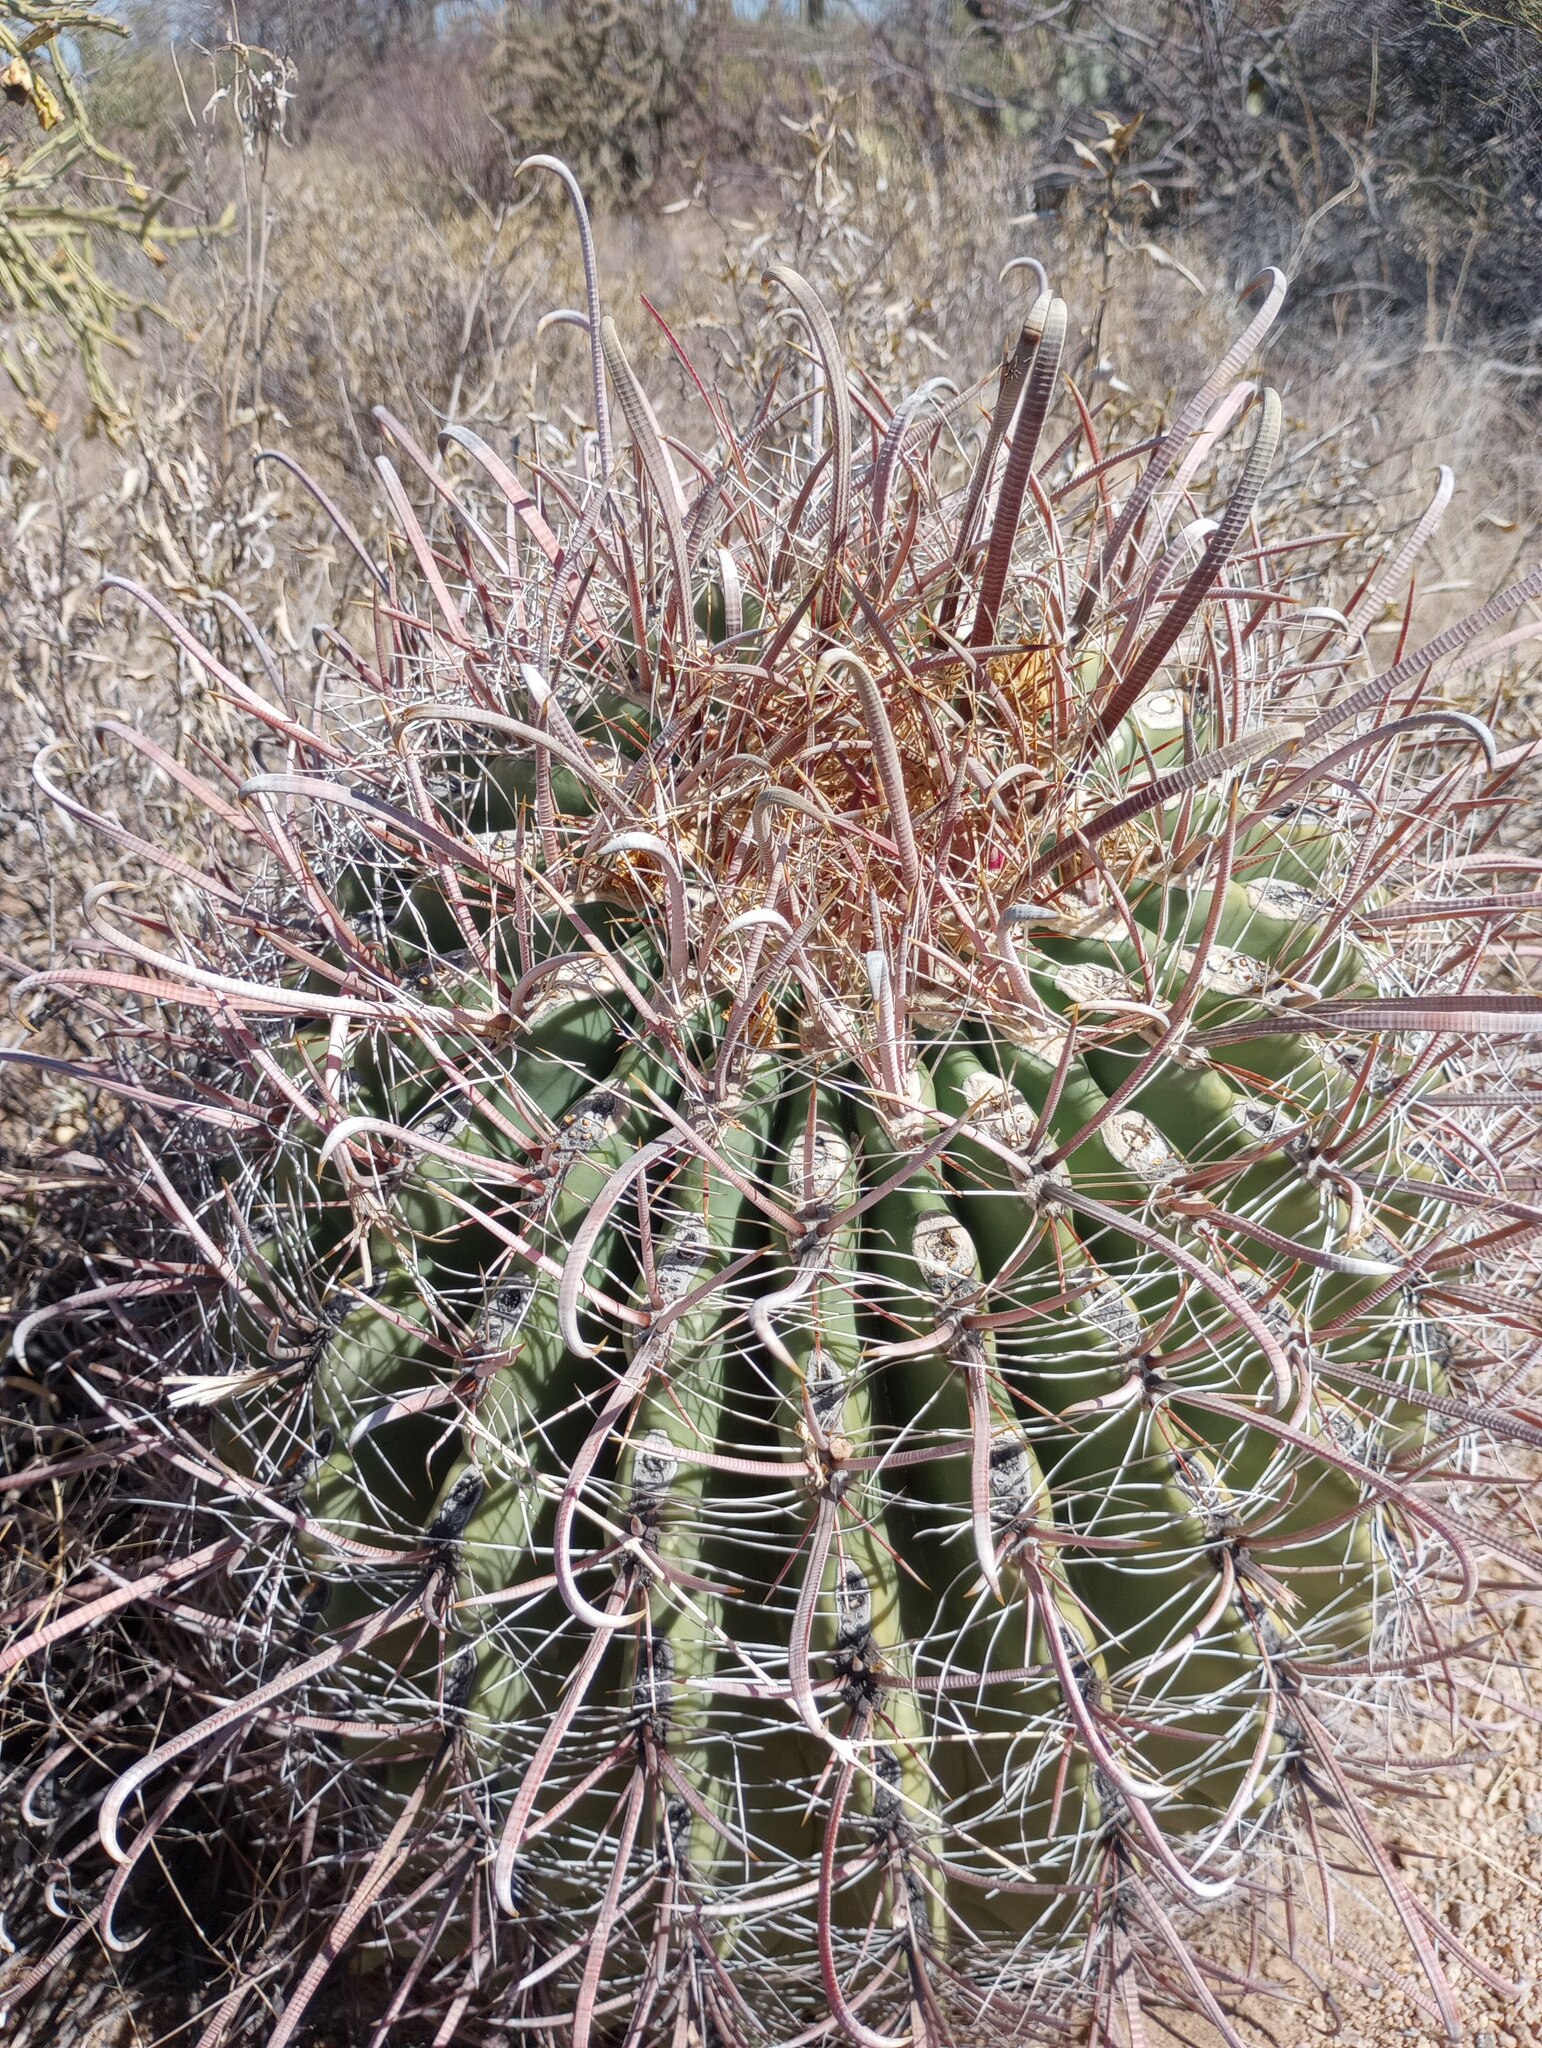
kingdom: Plantae
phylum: Tracheophyta
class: Magnoliopsida
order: Caryophyllales
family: Cactaceae
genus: Ferocactus
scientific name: Ferocactus wislizeni
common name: Candy barrel cactus
